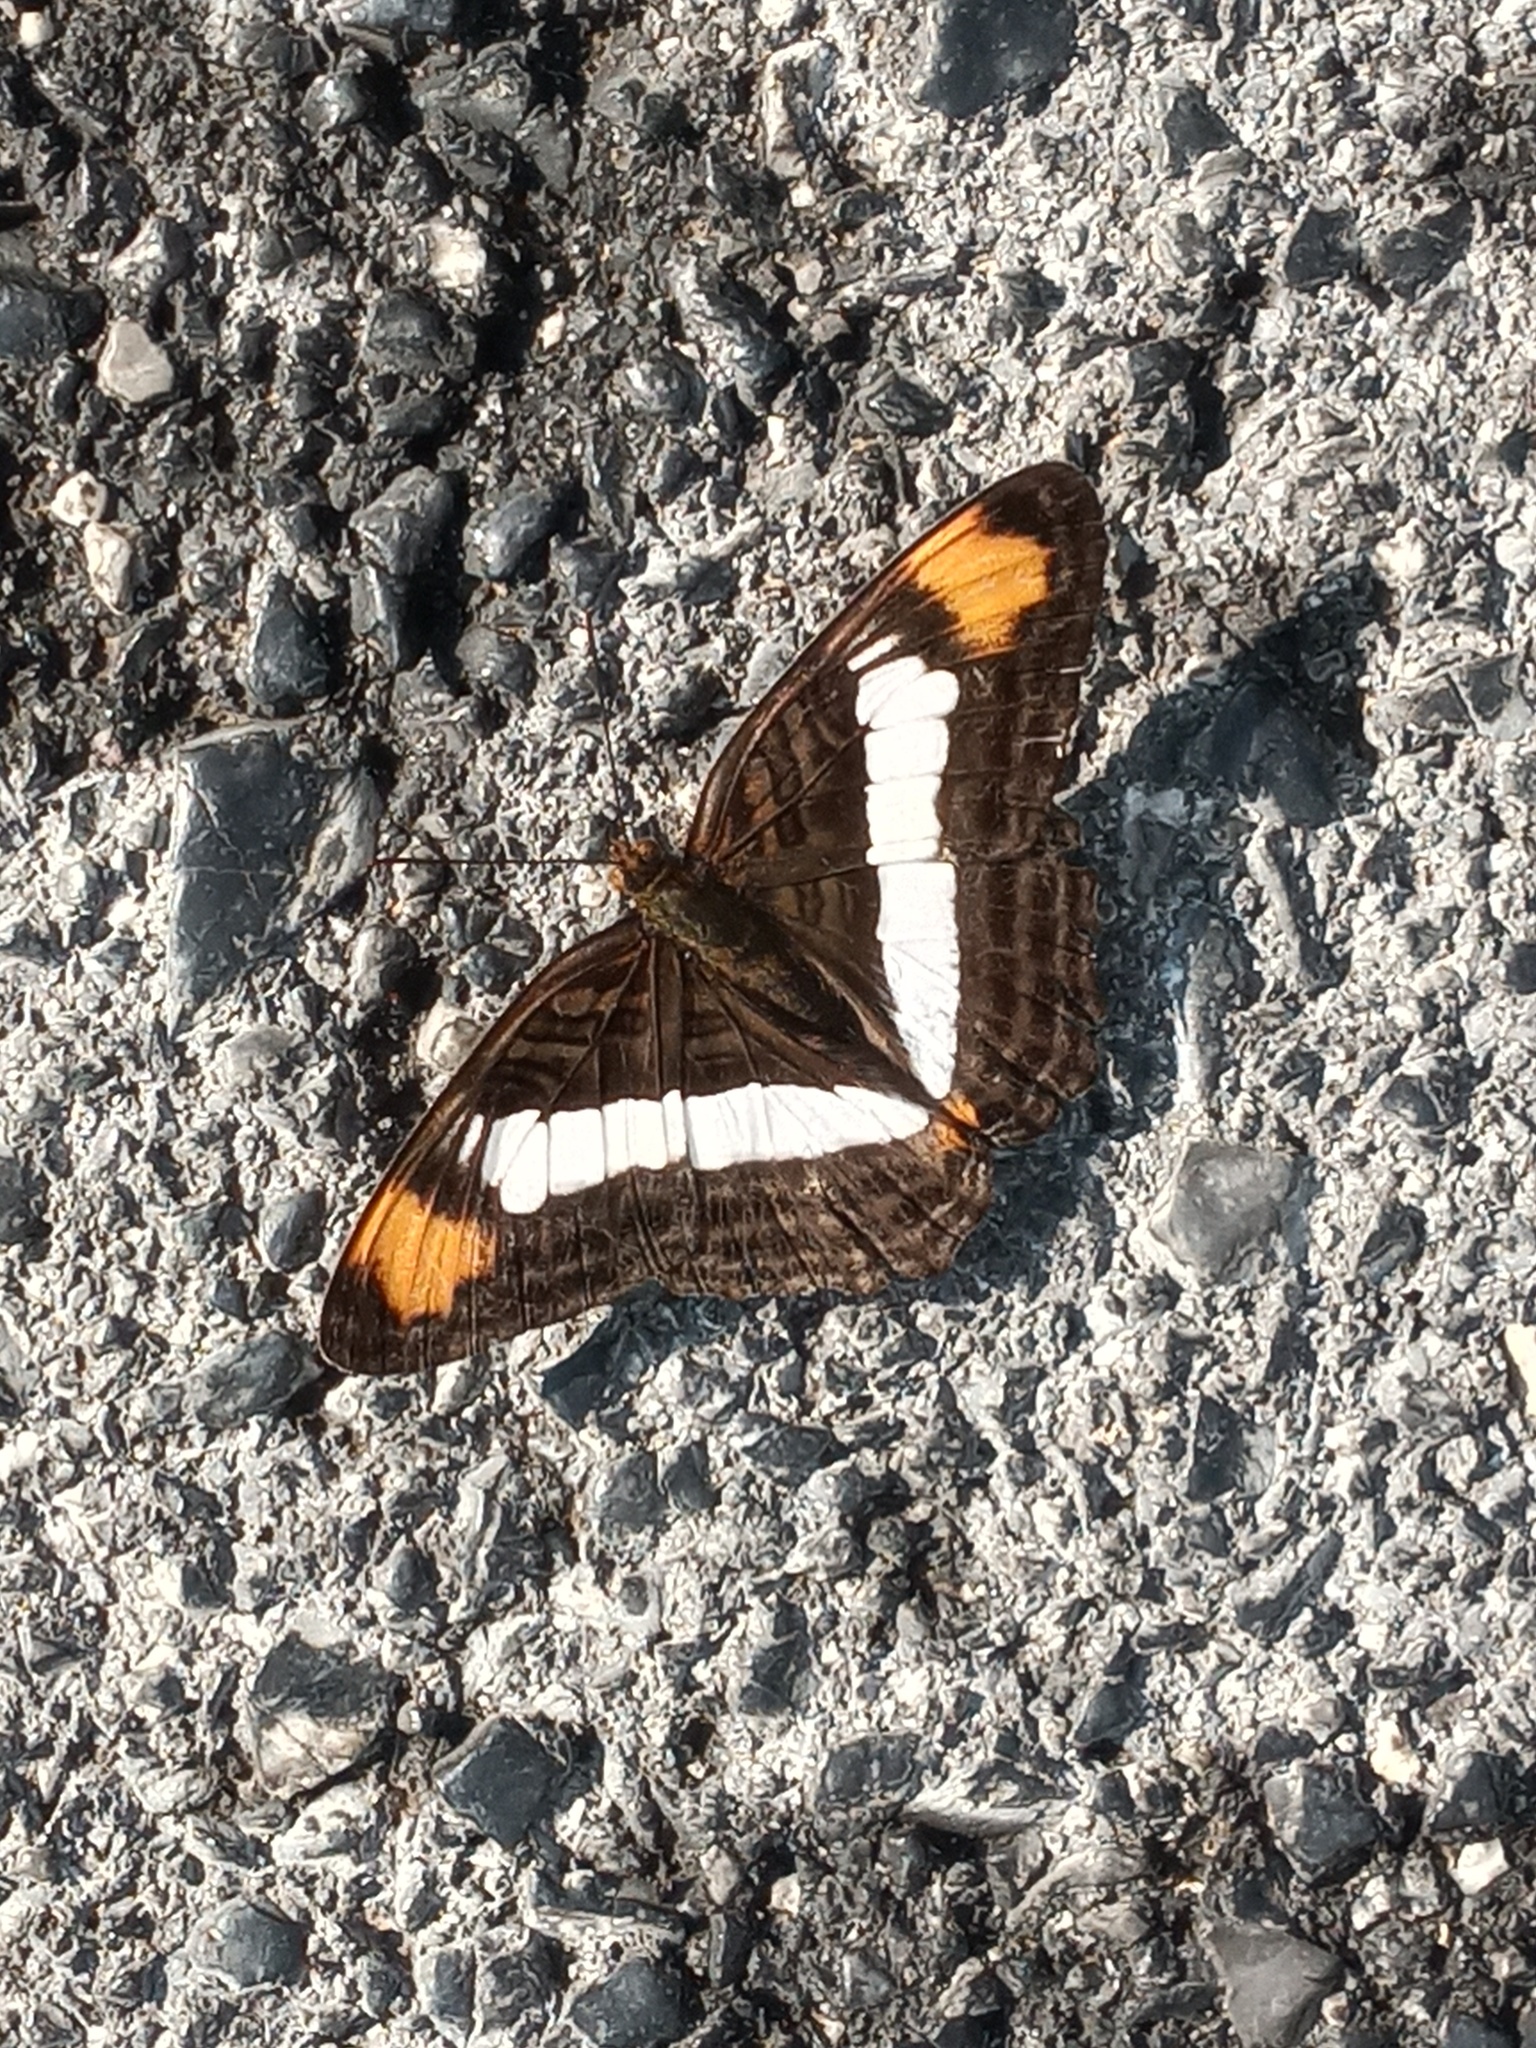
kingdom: Animalia
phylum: Arthropoda
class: Insecta
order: Lepidoptera
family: Nymphalidae
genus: Limenitis
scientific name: Limenitis Adelpha basiloides
